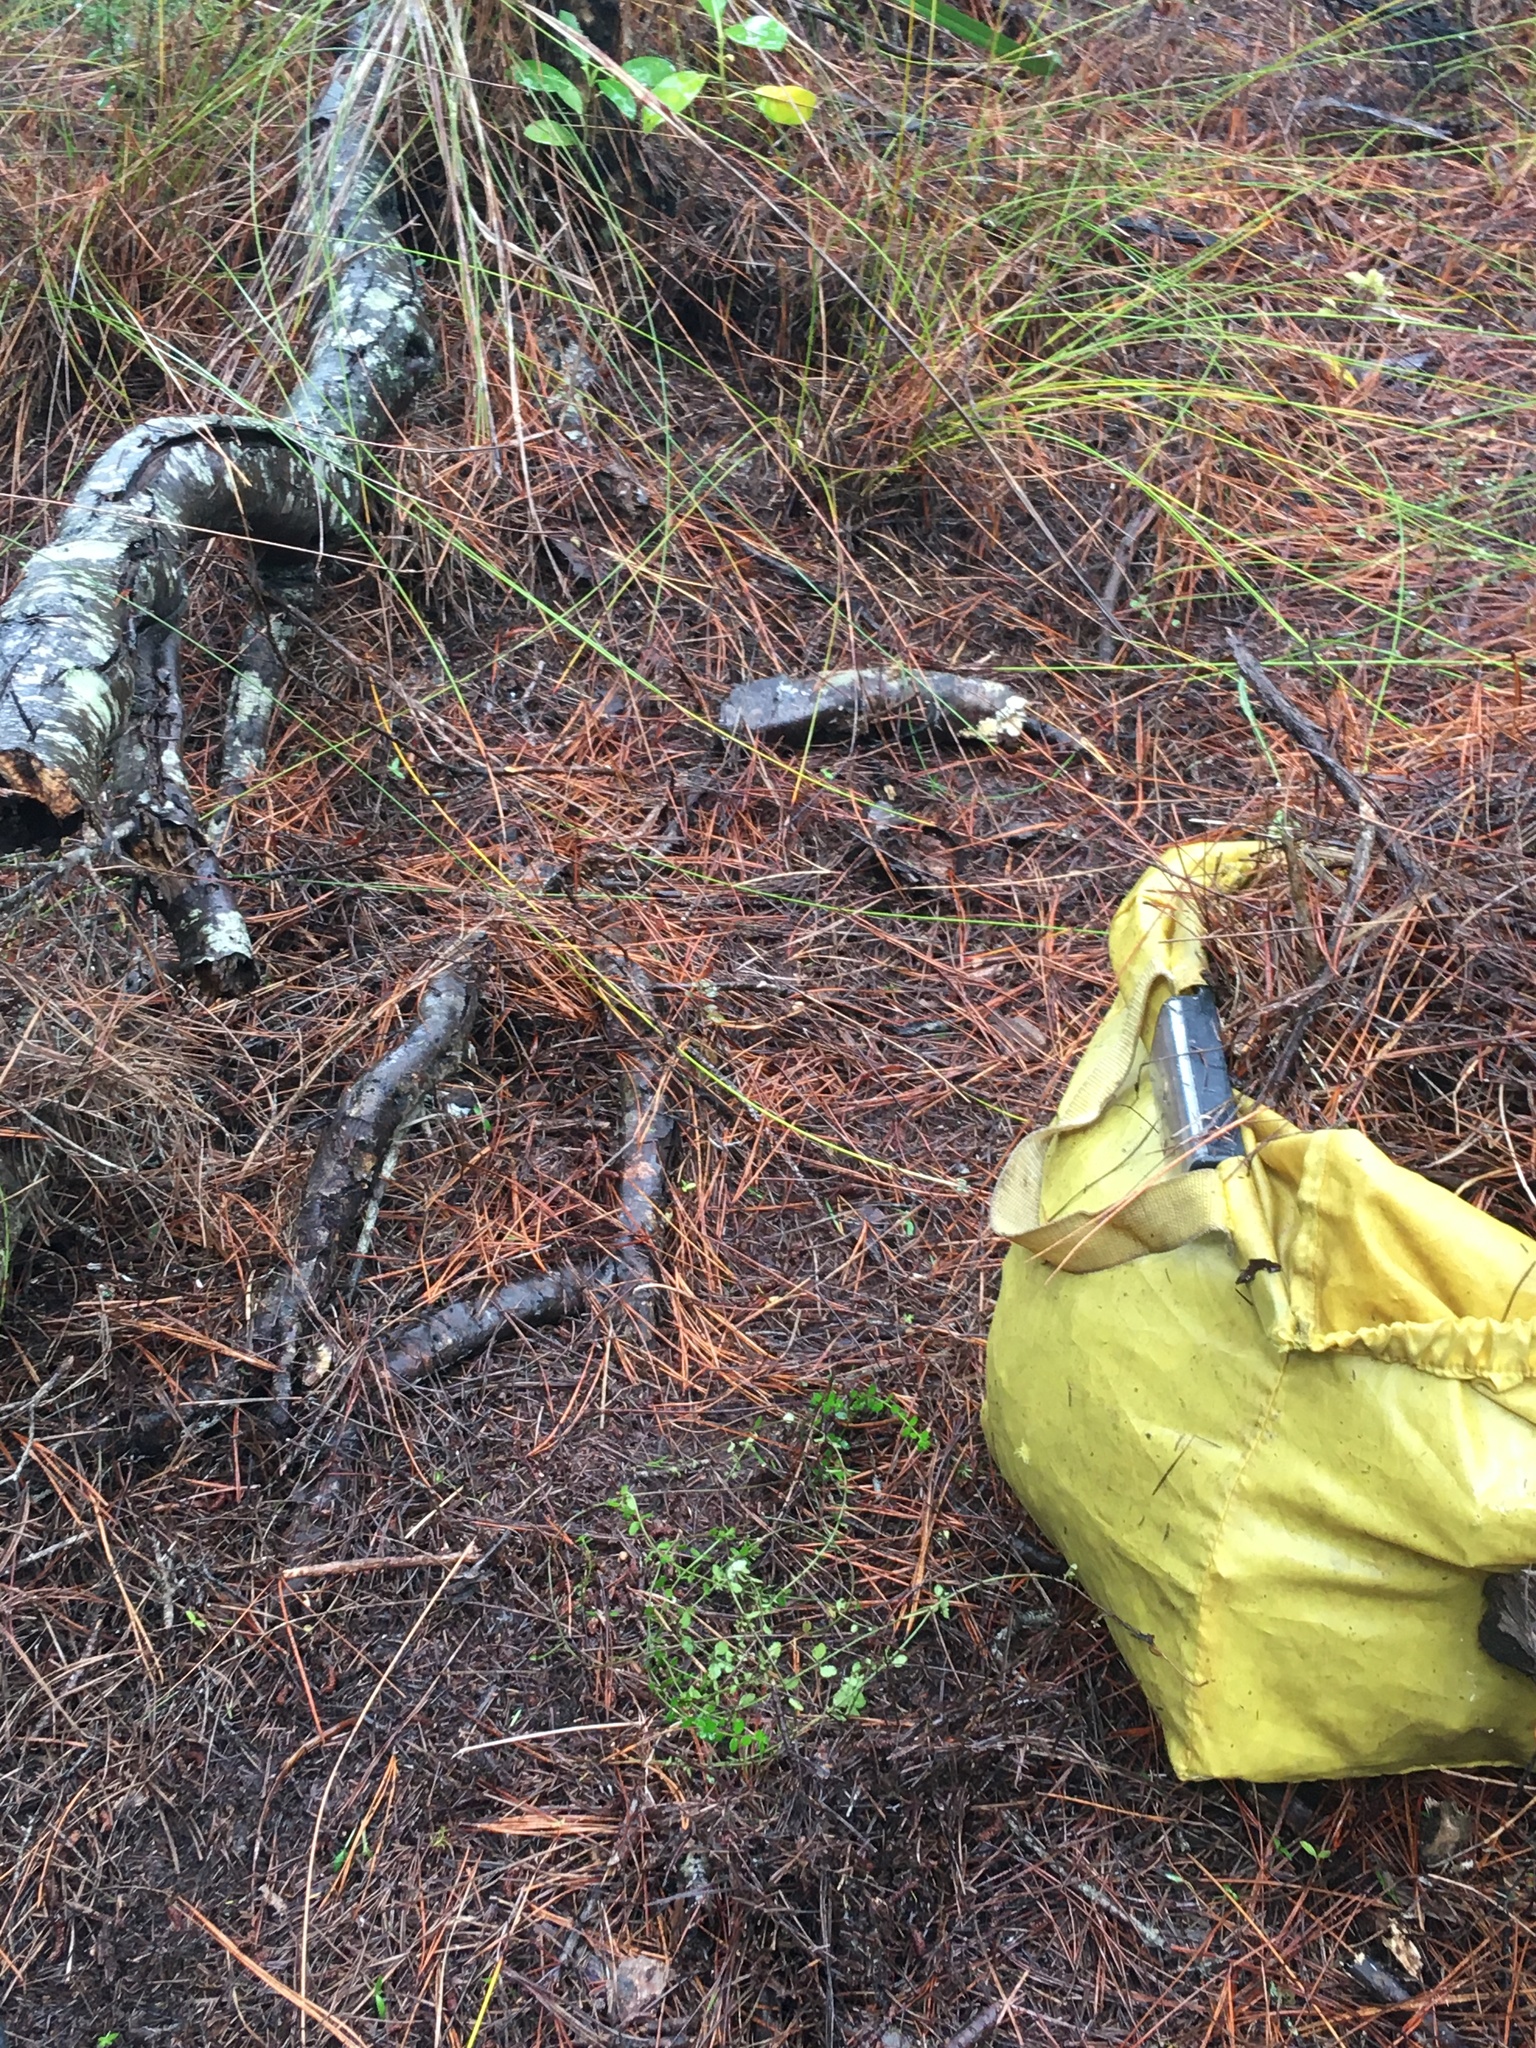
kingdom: Plantae
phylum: Tracheophyta
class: Magnoliopsida
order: Saxifragales
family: Haloragaceae
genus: Gonocarpus
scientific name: Gonocarpus incanus
